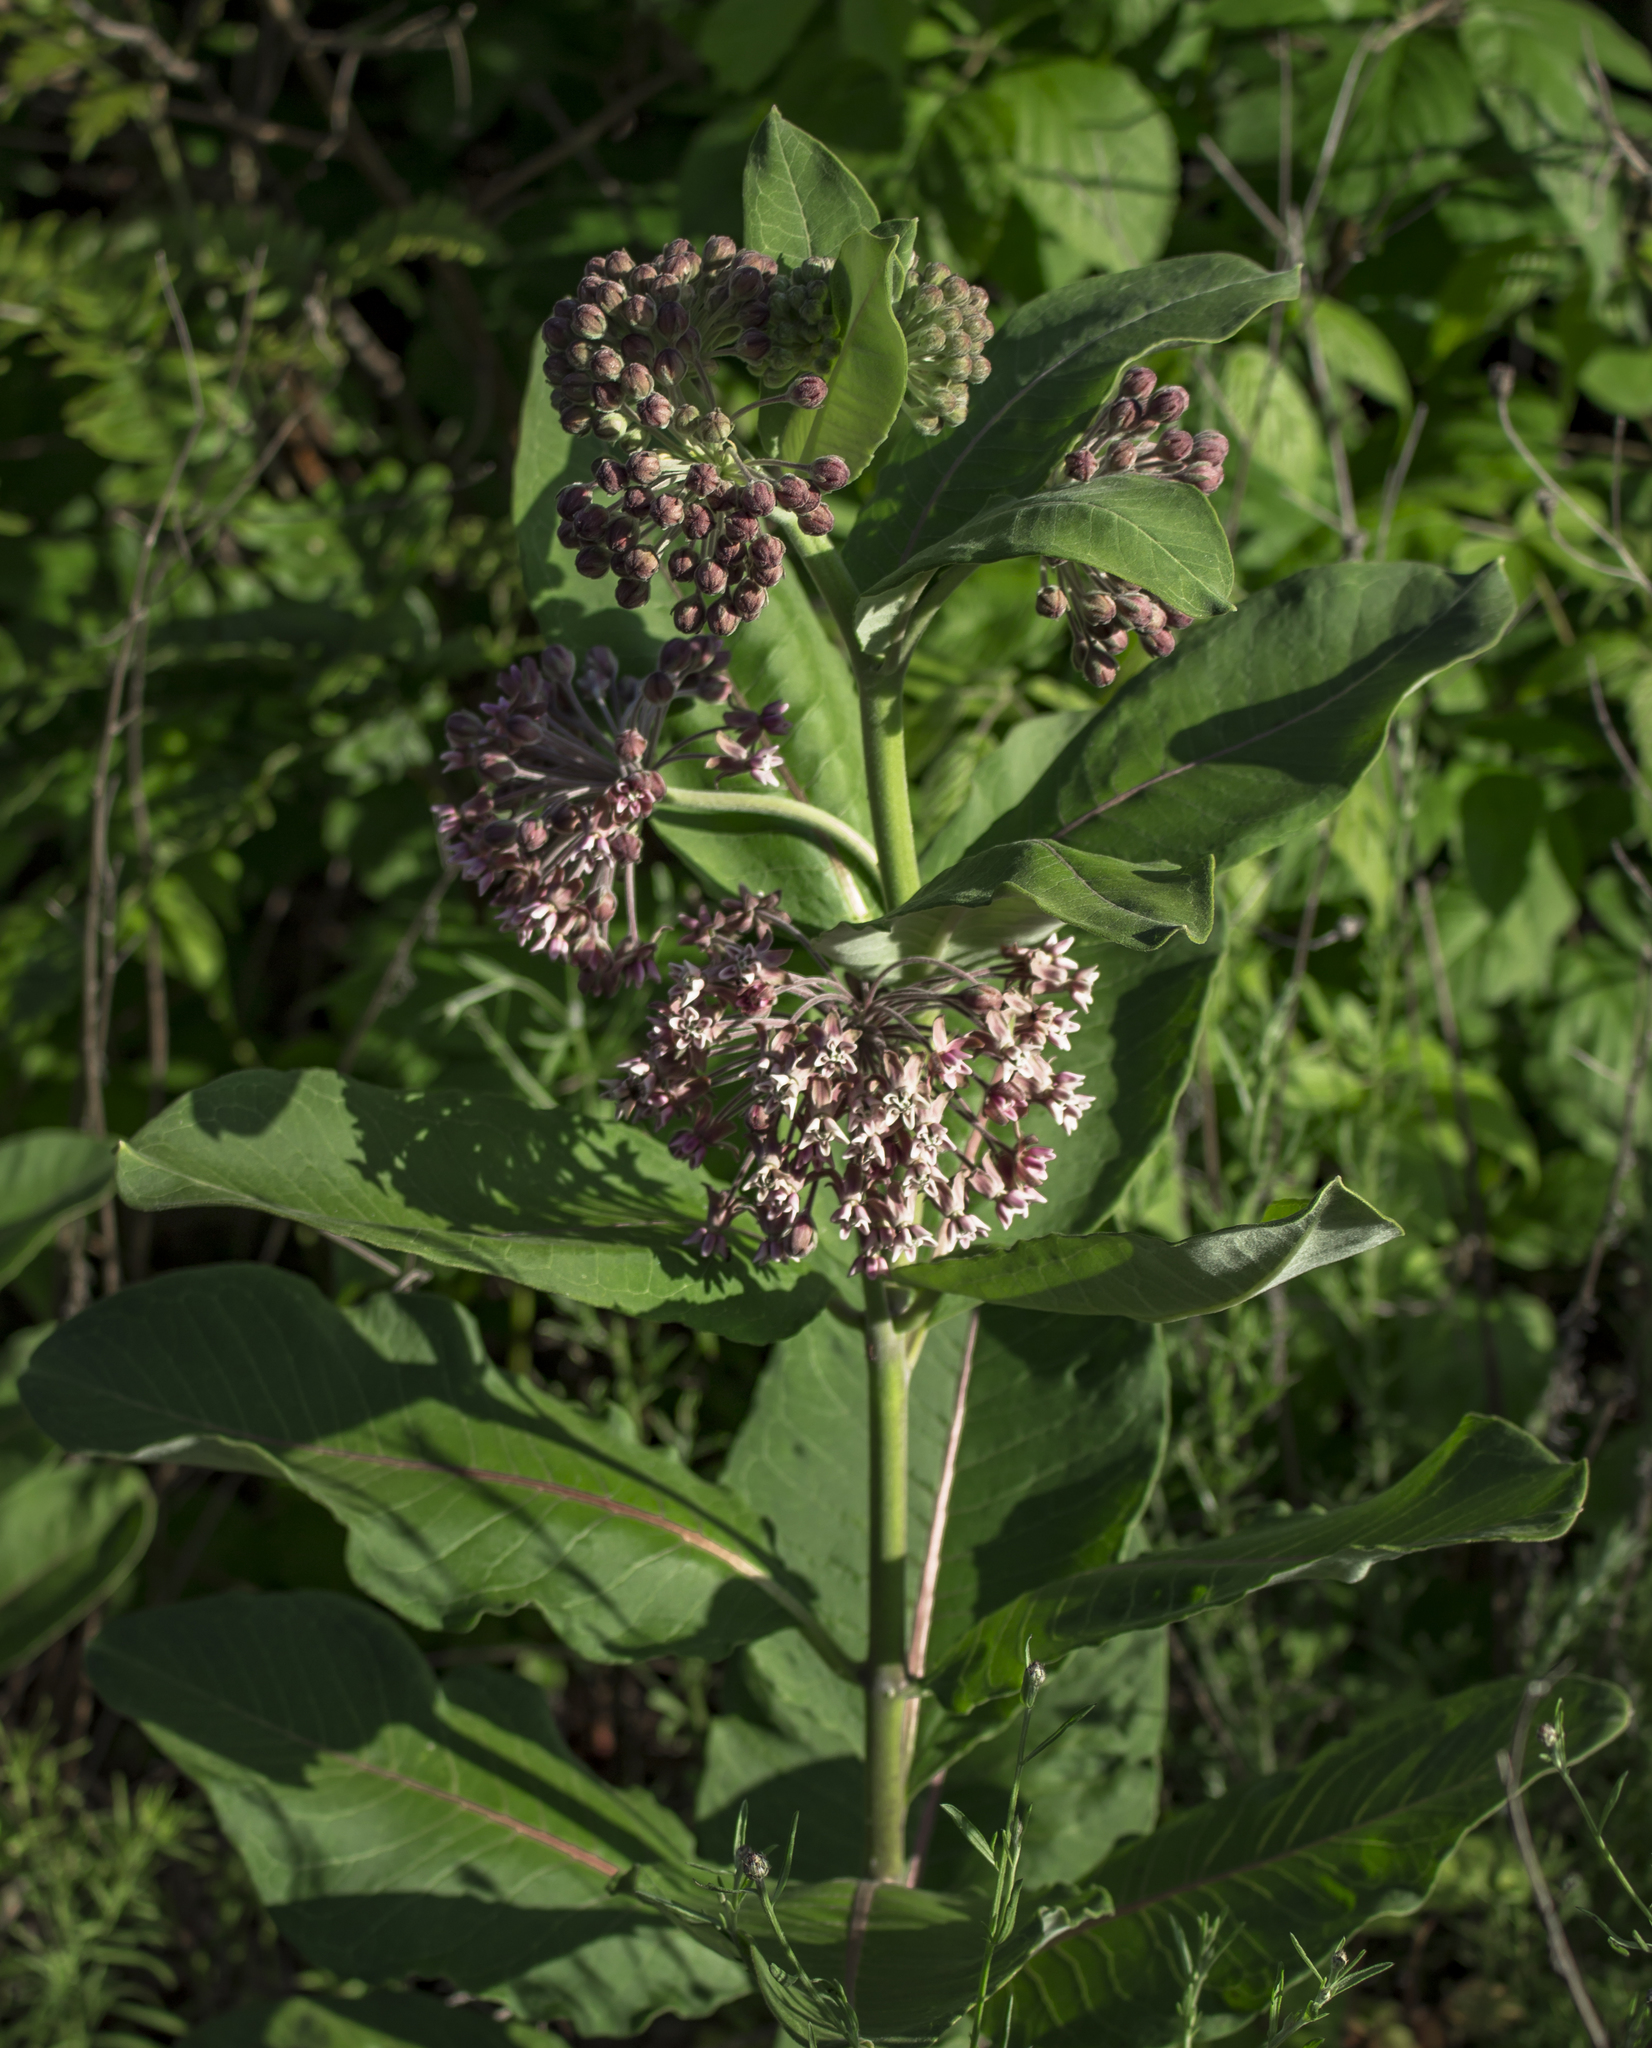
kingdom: Plantae
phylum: Tracheophyta
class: Magnoliopsida
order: Gentianales
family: Apocynaceae
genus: Asclepias
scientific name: Asclepias syriaca
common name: Common milkweed
